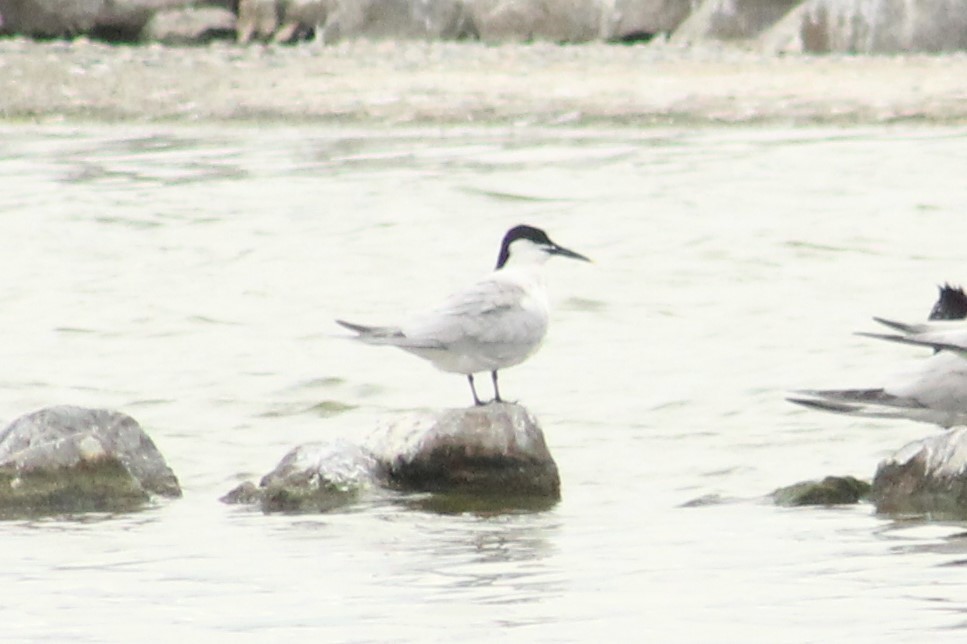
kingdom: Animalia
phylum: Chordata
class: Aves
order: Charadriiformes
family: Laridae
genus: Thalasseus
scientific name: Thalasseus sandvicensis
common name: Sandwich tern
